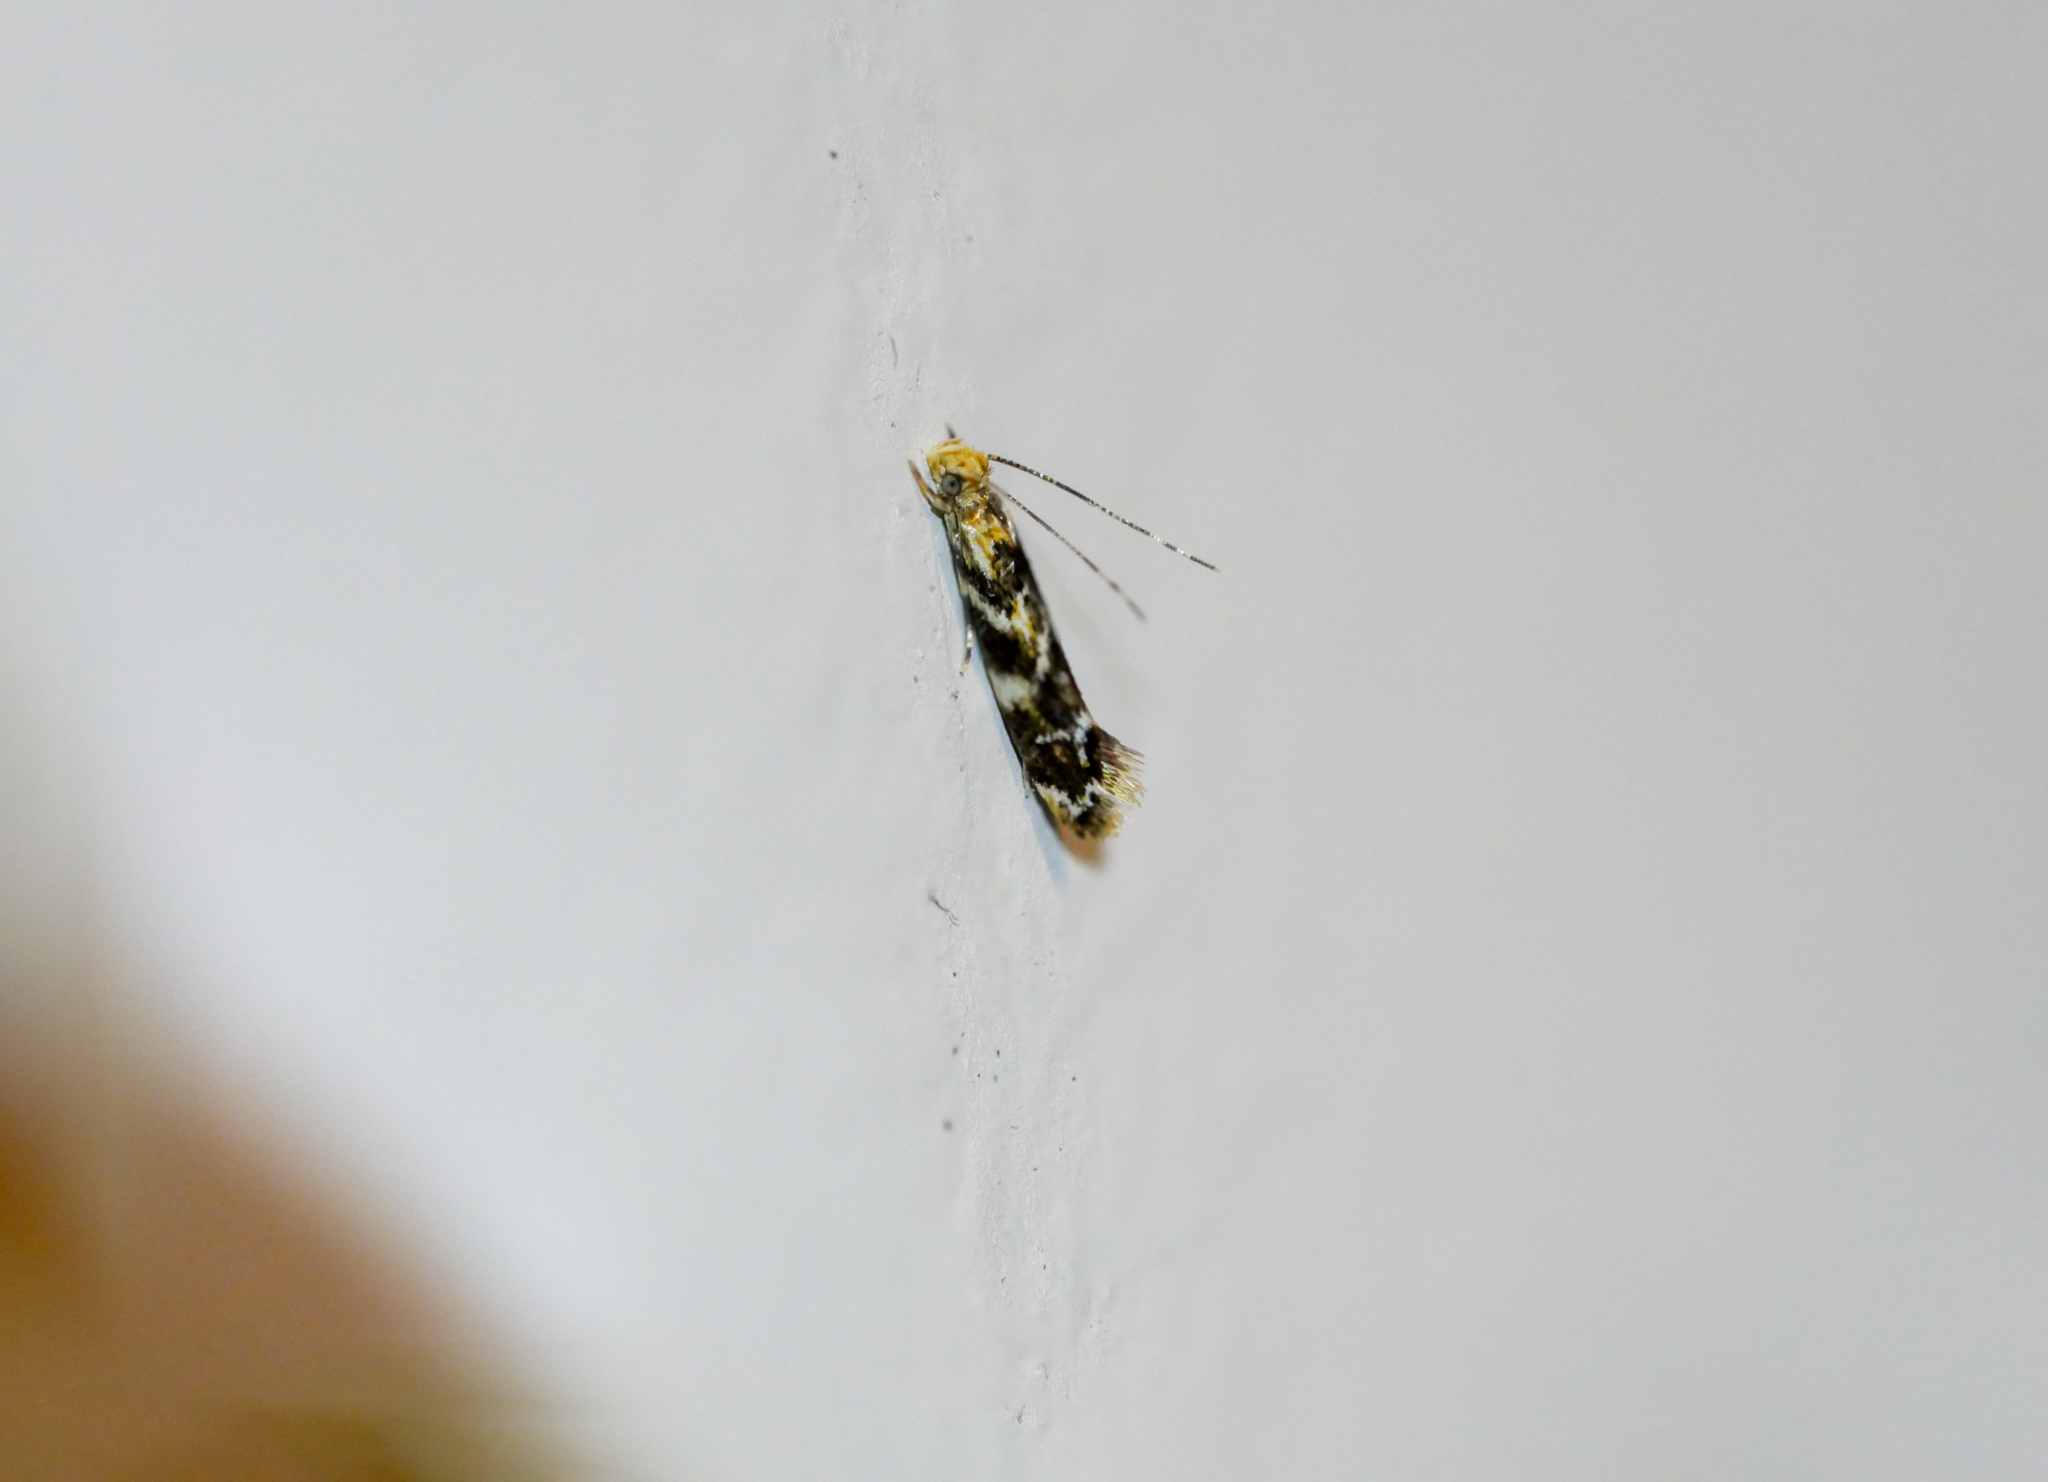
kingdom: Animalia
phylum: Arthropoda
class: Insecta
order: Lepidoptera
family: Dryadaulidae
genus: Dryadaula
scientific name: Dryadaula pactolia
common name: Cellar clothes
